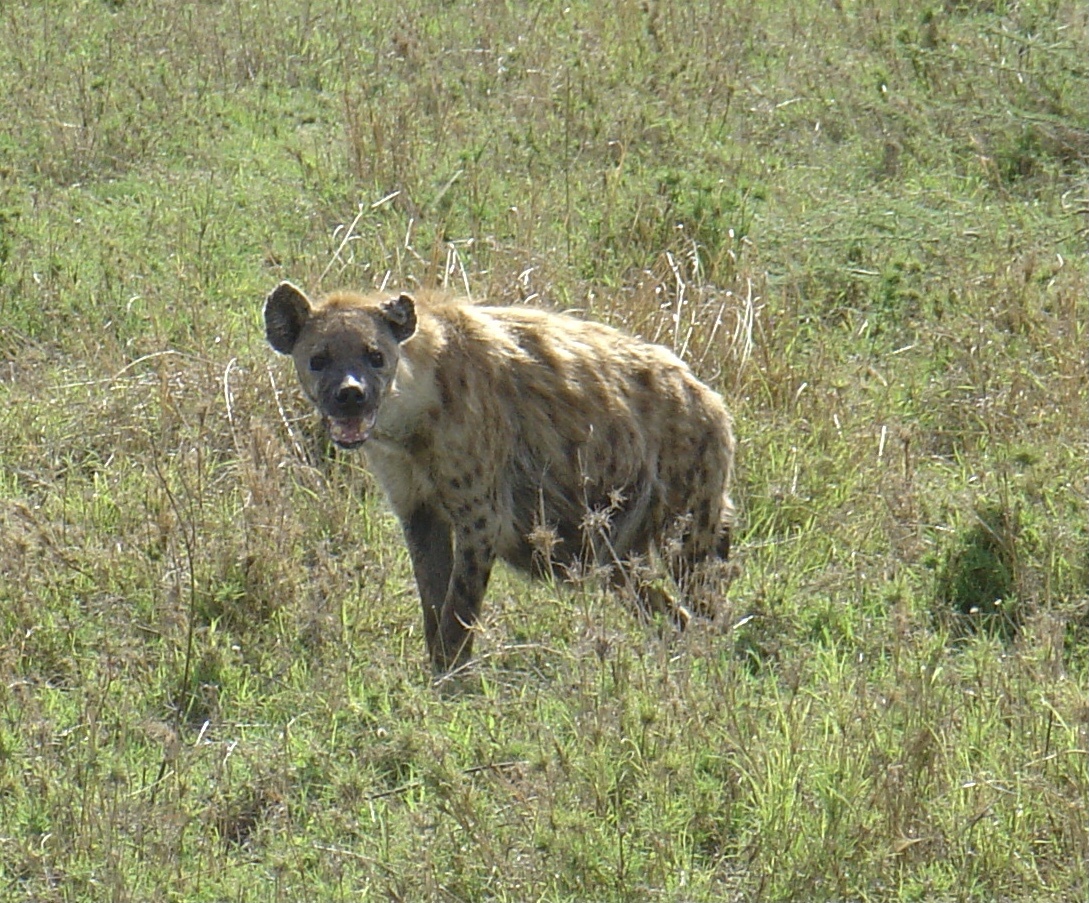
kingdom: Animalia
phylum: Chordata
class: Mammalia
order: Carnivora
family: Hyaenidae
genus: Crocuta
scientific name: Crocuta crocuta
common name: Spotted hyaena
